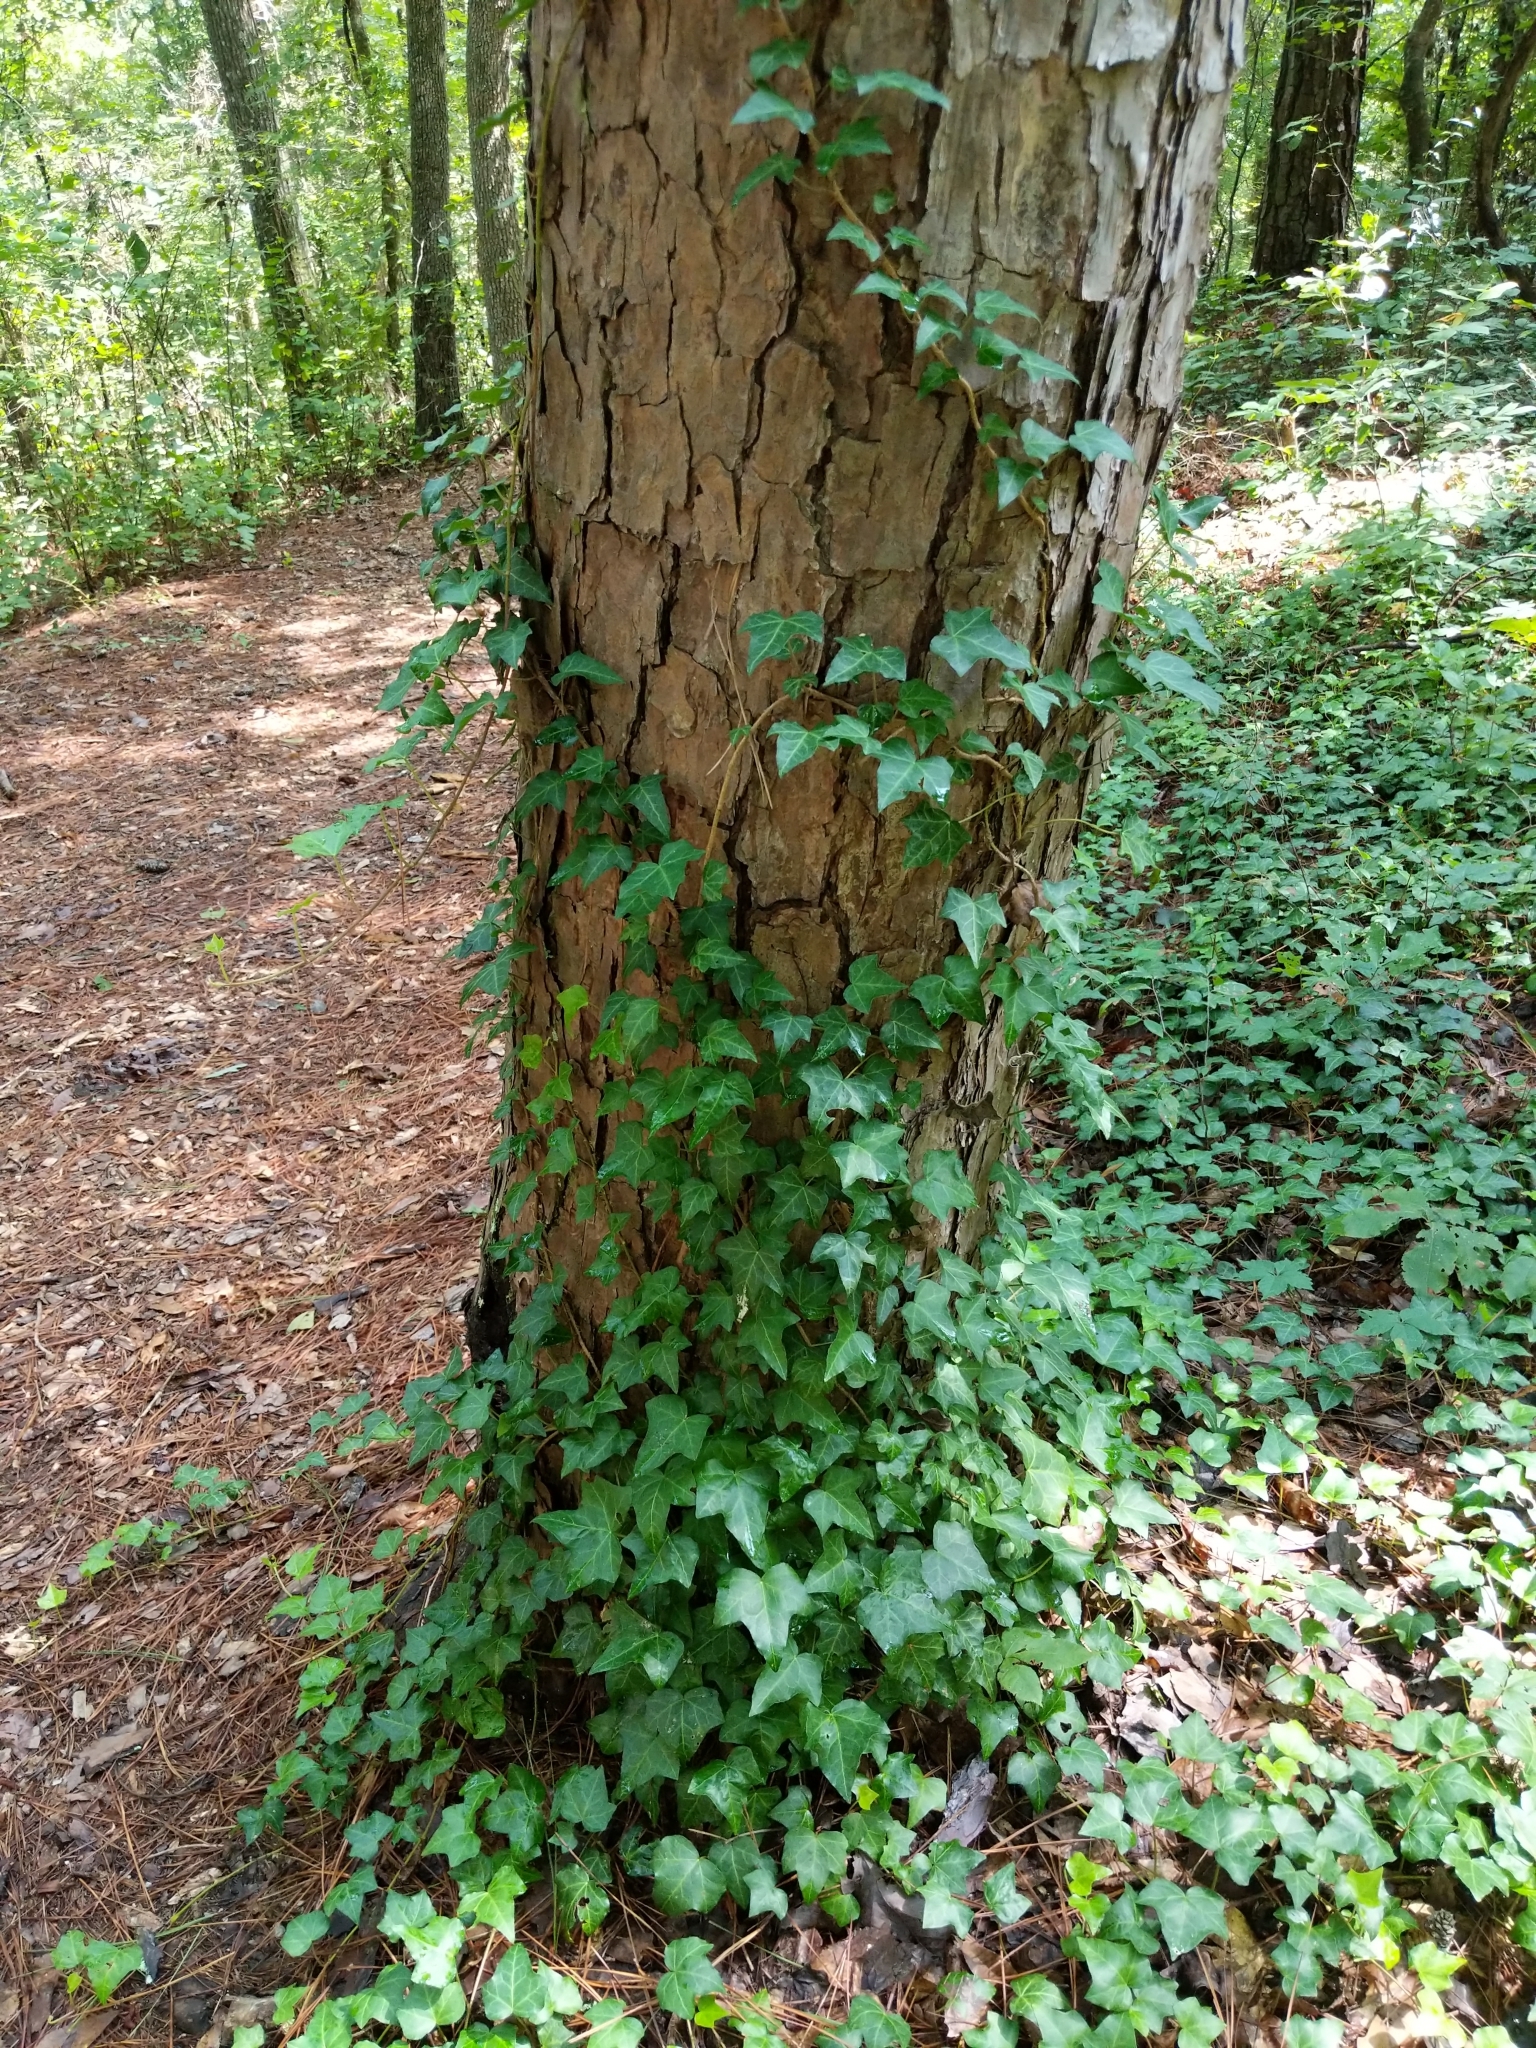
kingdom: Plantae
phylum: Tracheophyta
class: Magnoliopsida
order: Apiales
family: Araliaceae
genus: Hedera
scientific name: Hedera helix
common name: Ivy
